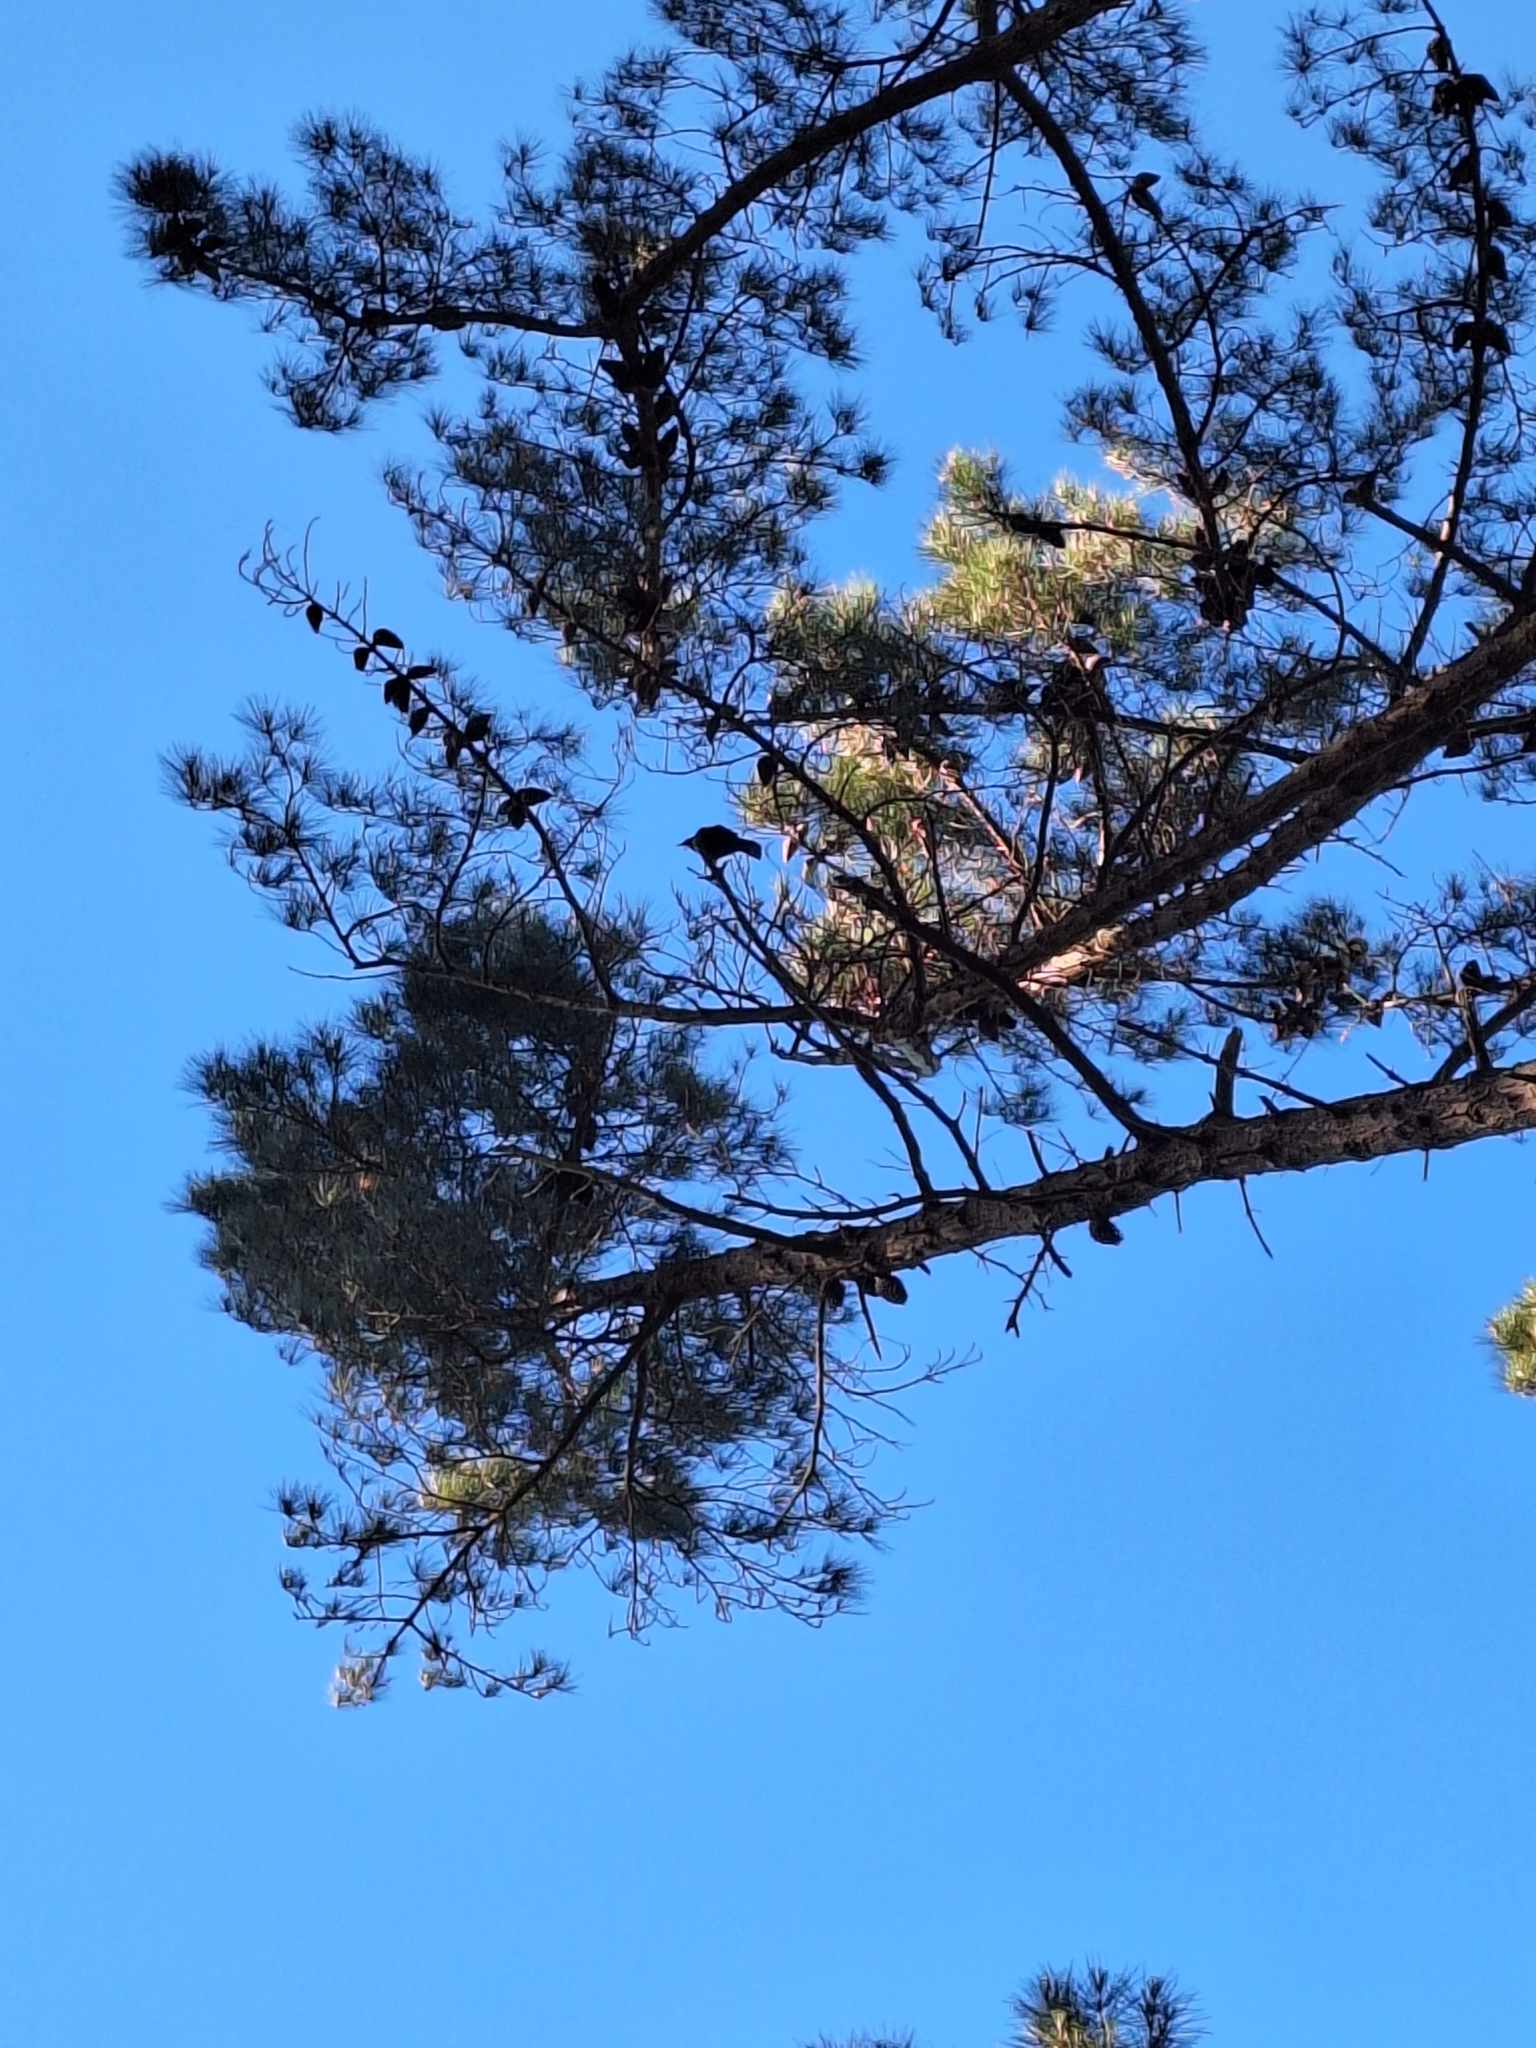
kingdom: Animalia
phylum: Chordata
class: Aves
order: Passeriformes
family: Meliphagidae
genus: Prosthemadera
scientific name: Prosthemadera novaeseelandiae
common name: Tui
